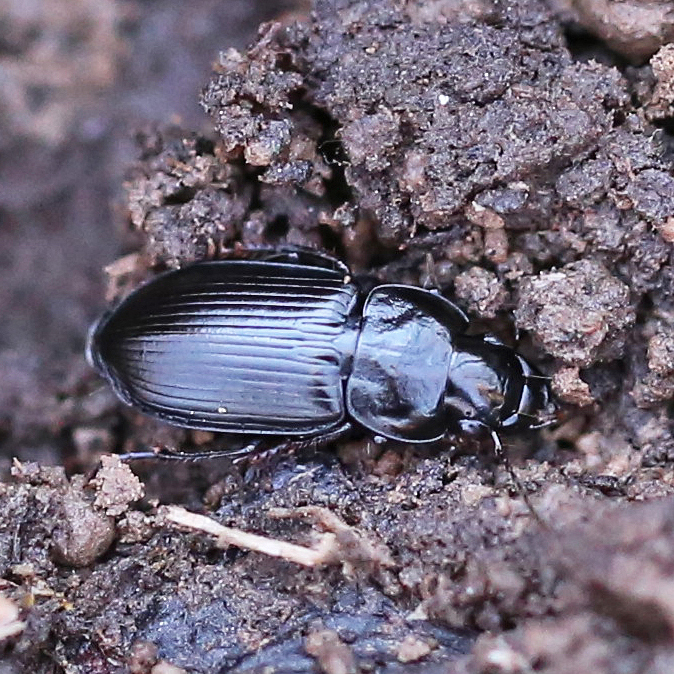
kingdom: Animalia
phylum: Arthropoda
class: Insecta
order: Coleoptera
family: Carabidae
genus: Xestonotus
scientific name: Xestonotus lugubris
